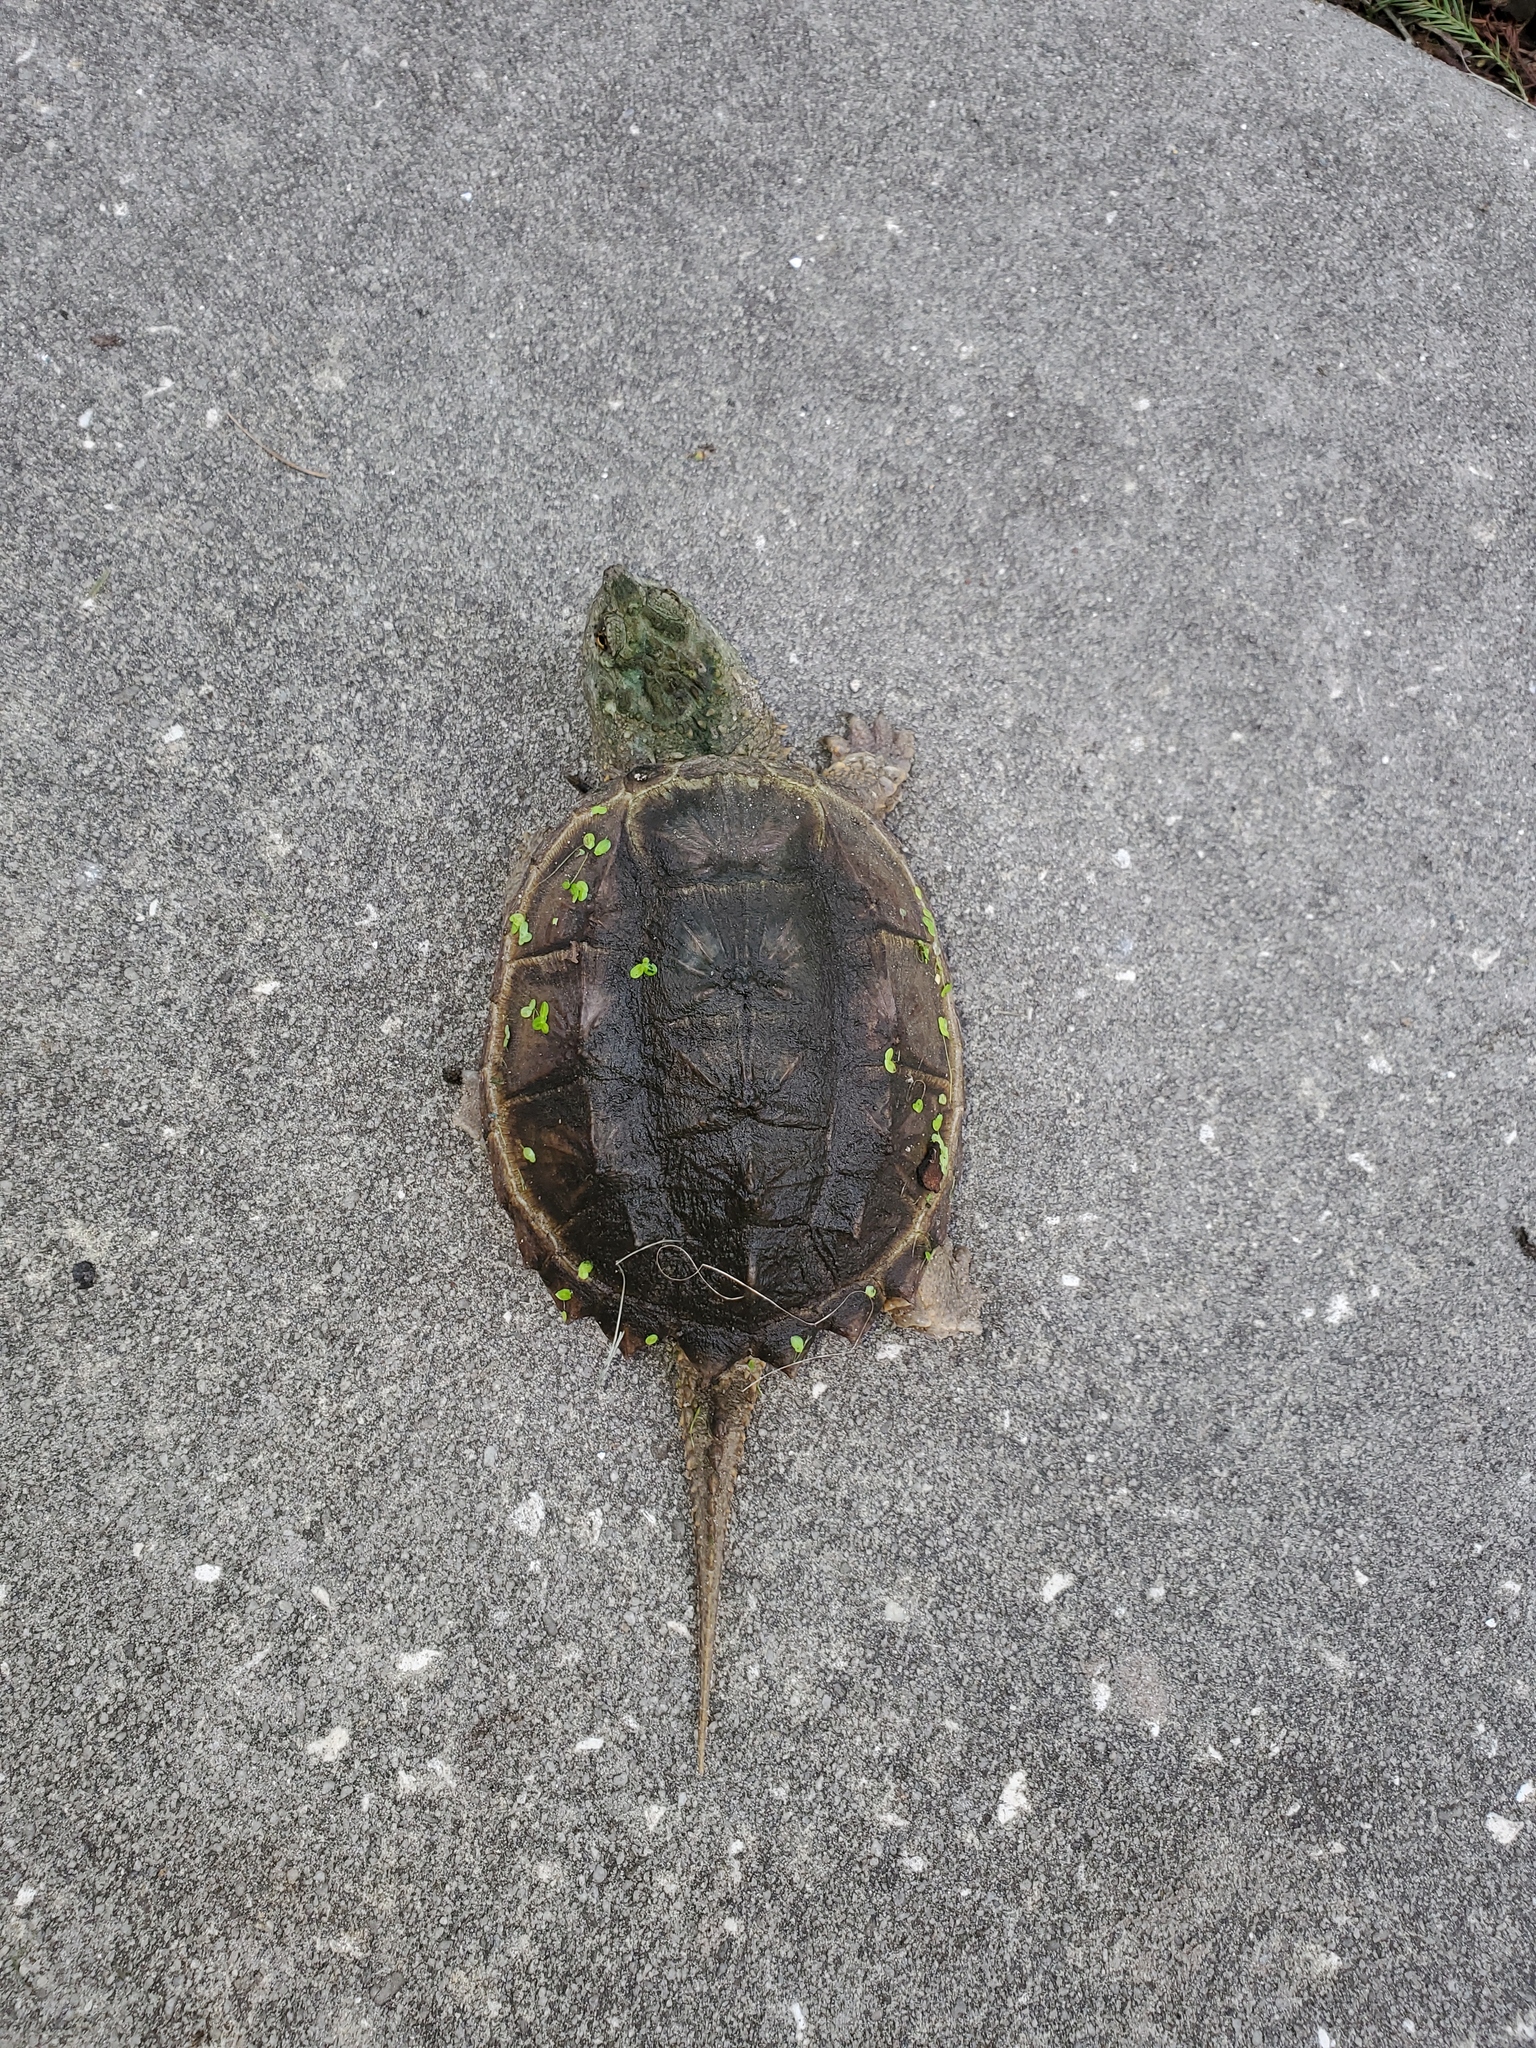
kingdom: Animalia
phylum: Chordata
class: Testudines
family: Chelydridae
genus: Chelydra
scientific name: Chelydra serpentina
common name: Common snapping turtle
